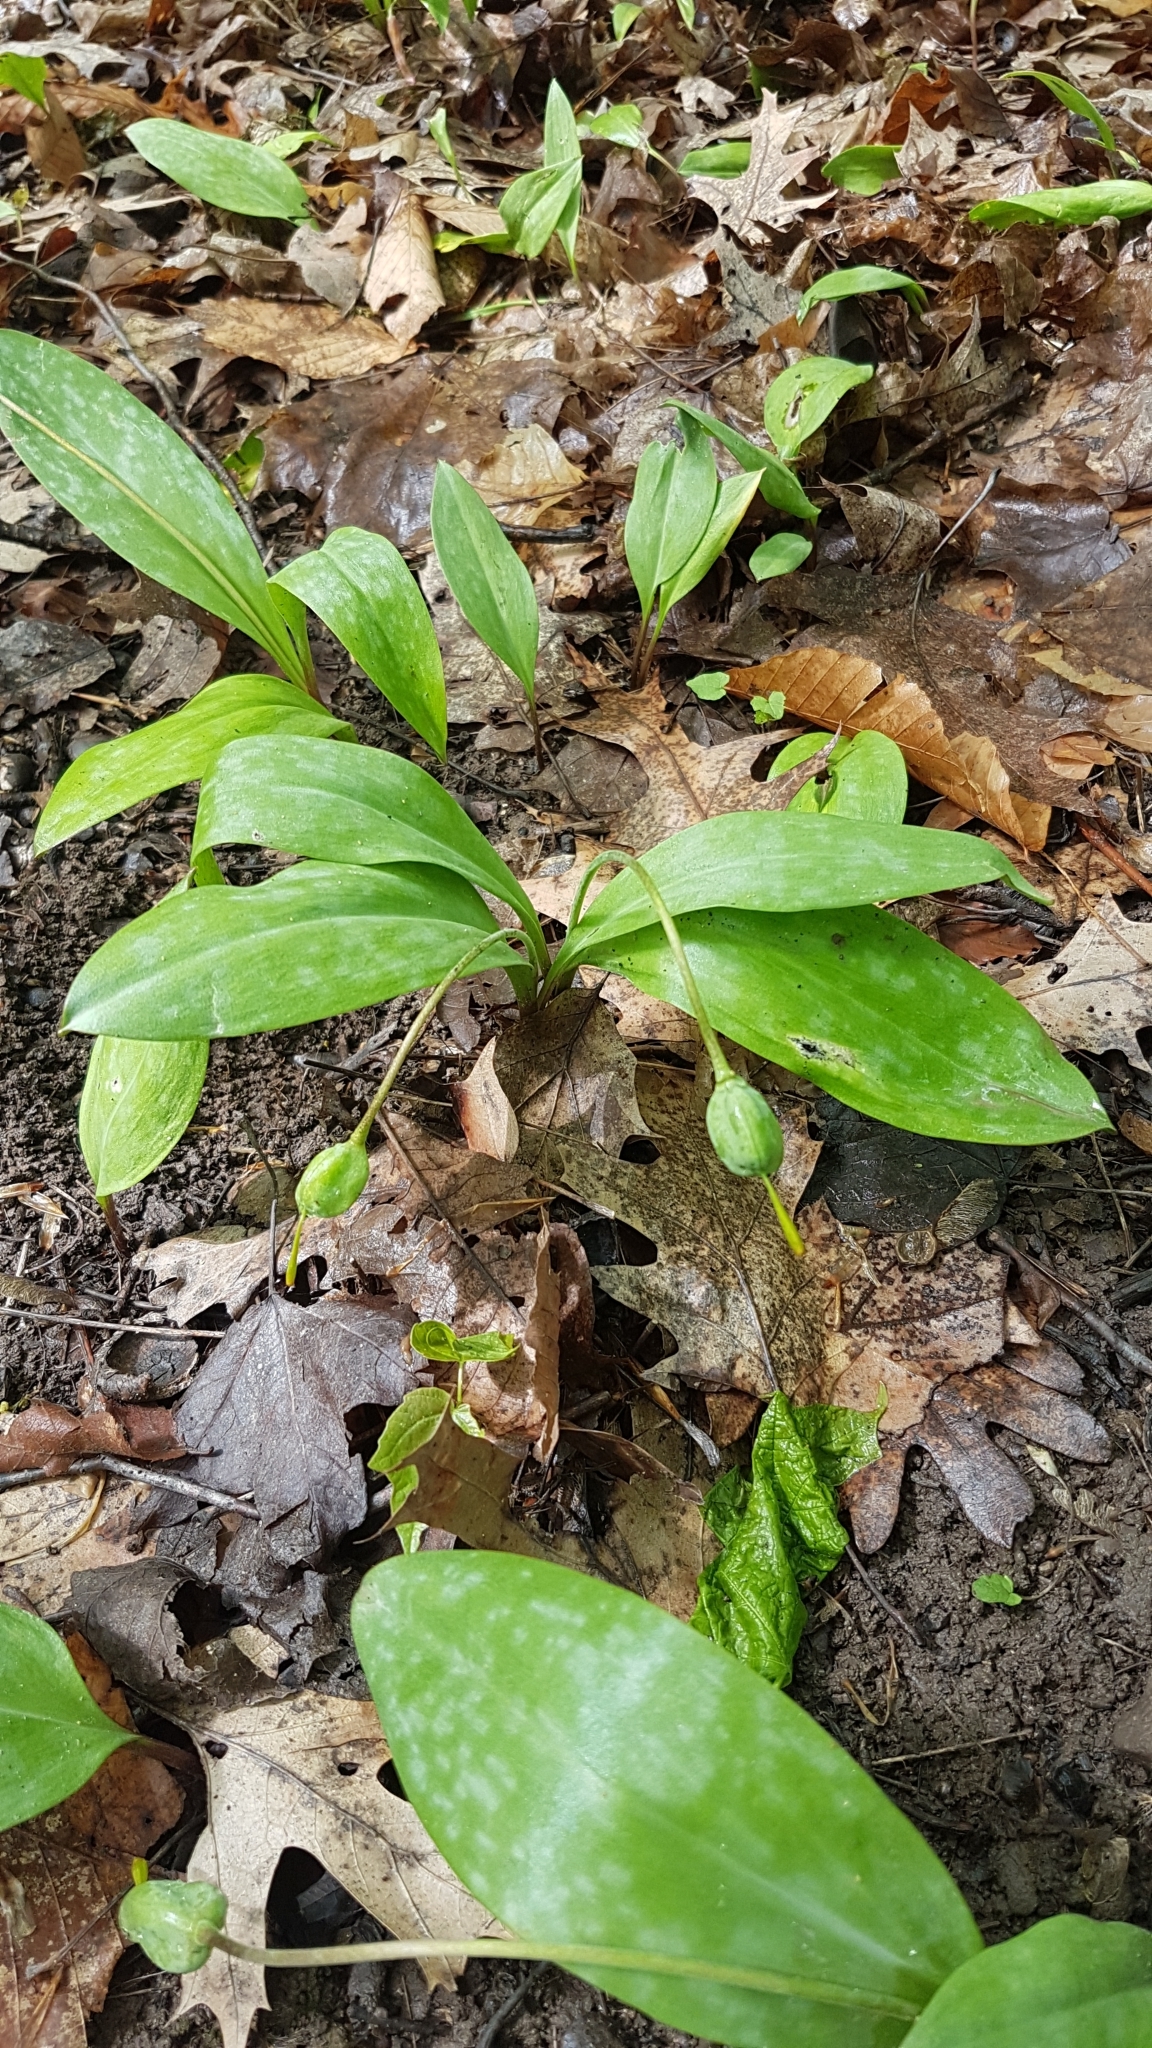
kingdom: Plantae
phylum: Tracheophyta
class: Liliopsida
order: Liliales
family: Liliaceae
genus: Erythronium
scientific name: Erythronium americanum
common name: Yellow adder's-tongue
